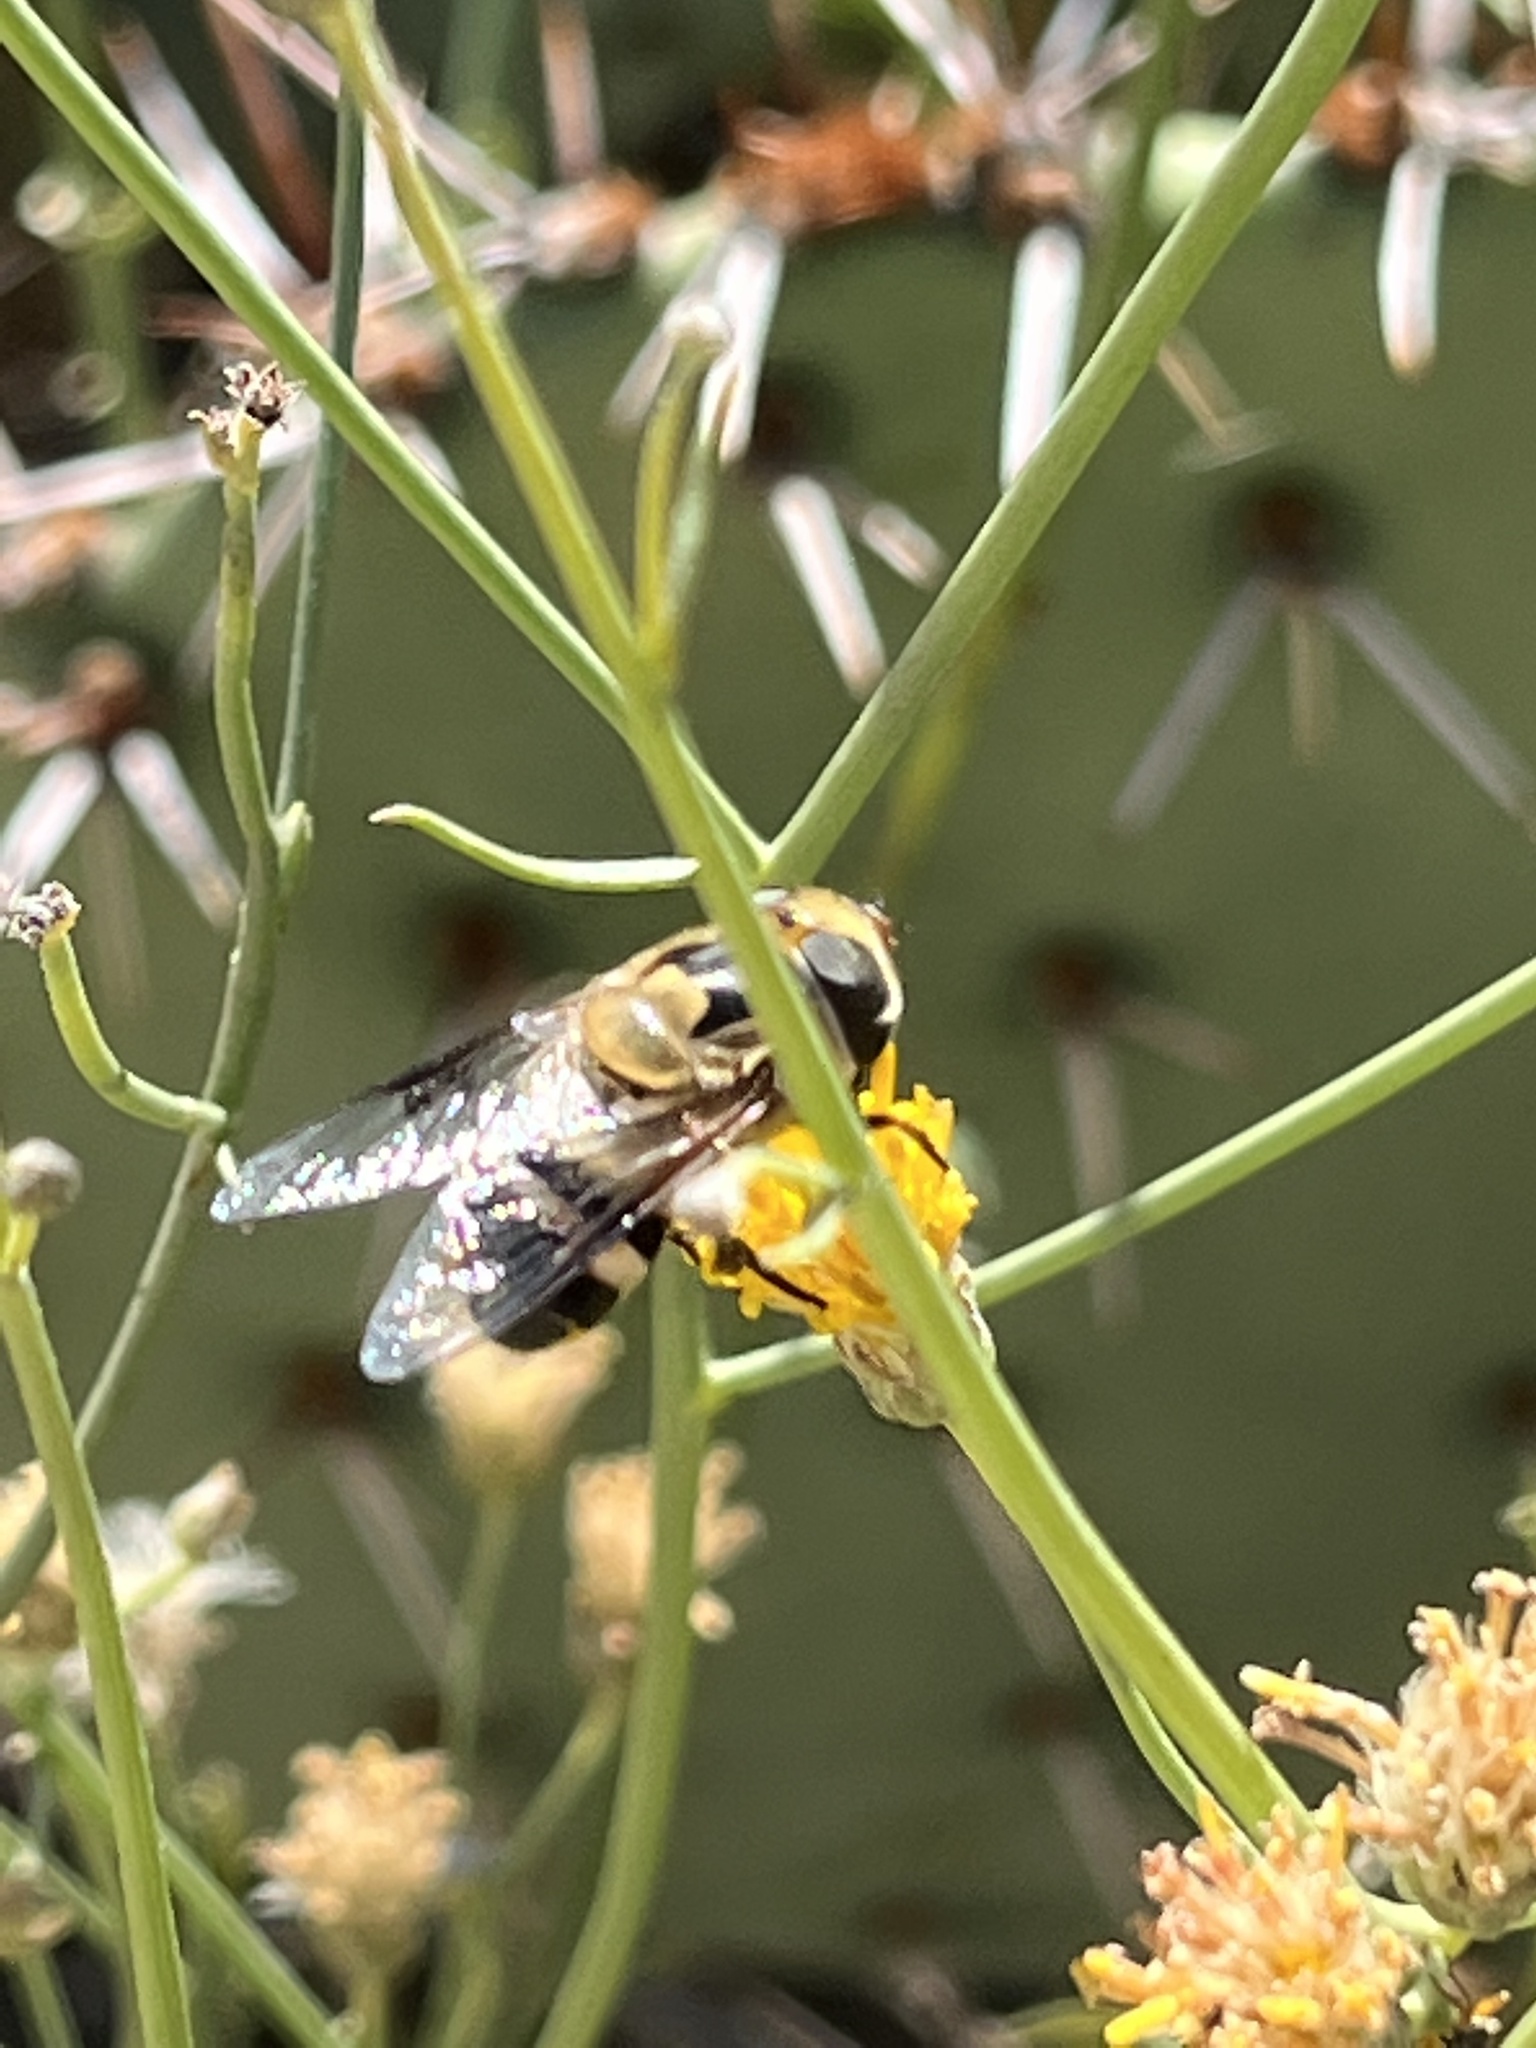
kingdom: Animalia
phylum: Arthropoda
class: Insecta
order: Diptera
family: Syrphidae
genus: Copestylum
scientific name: Copestylum apiciferum
